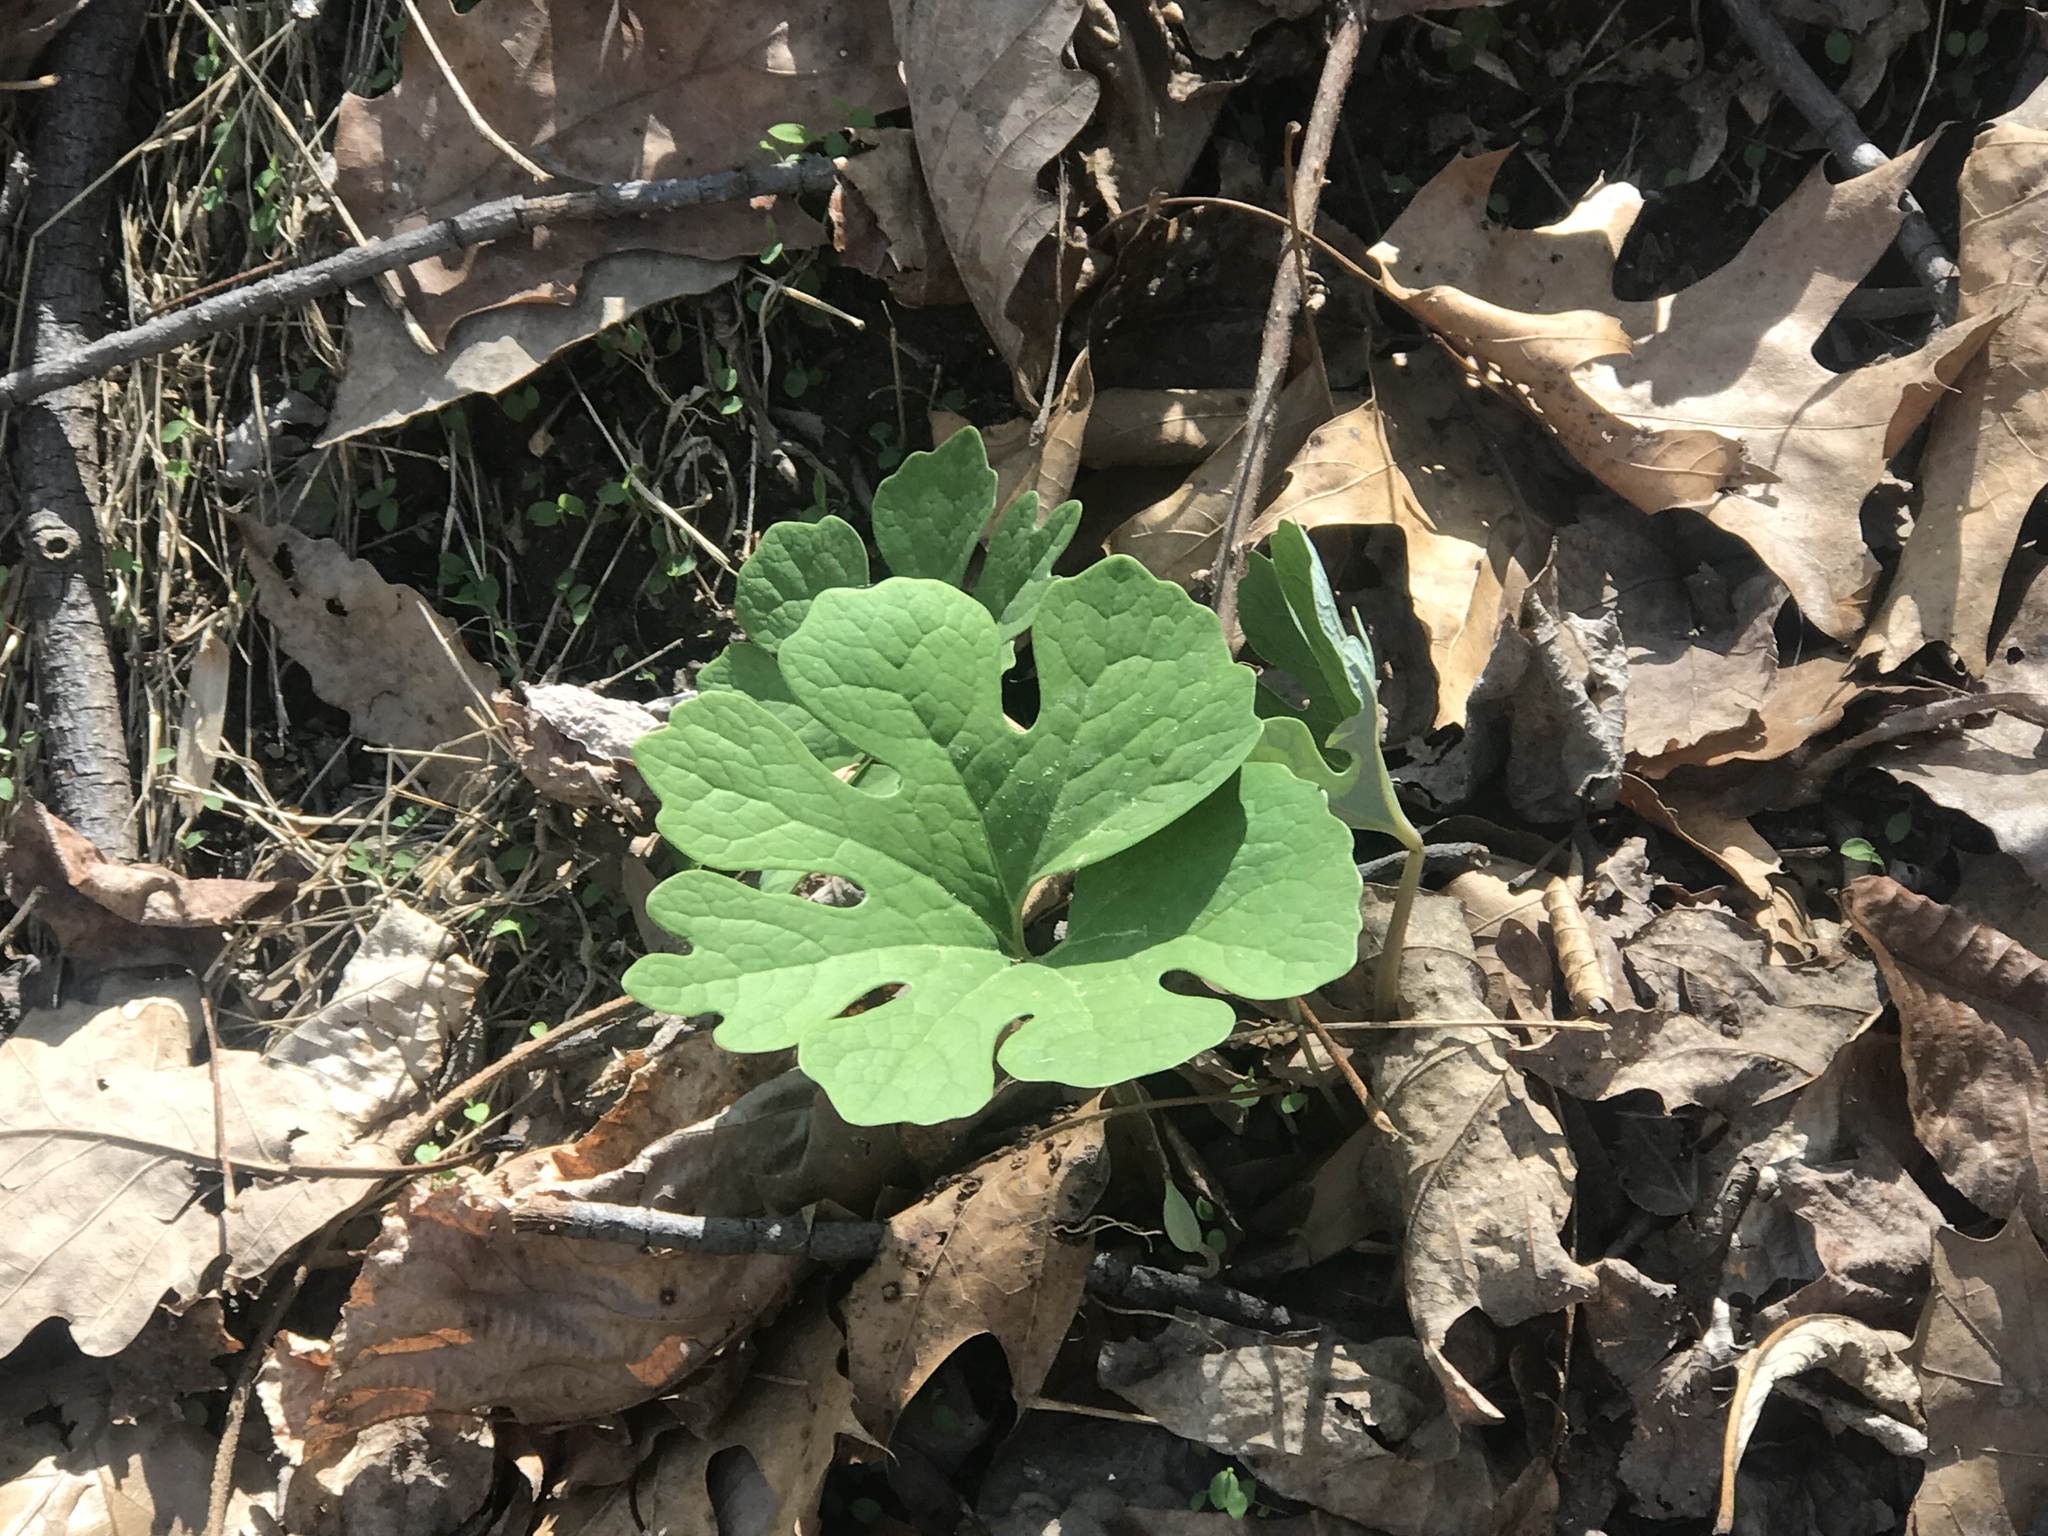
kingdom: Plantae
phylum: Tracheophyta
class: Magnoliopsida
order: Ranunculales
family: Papaveraceae
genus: Sanguinaria
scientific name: Sanguinaria canadensis
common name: Bloodroot
